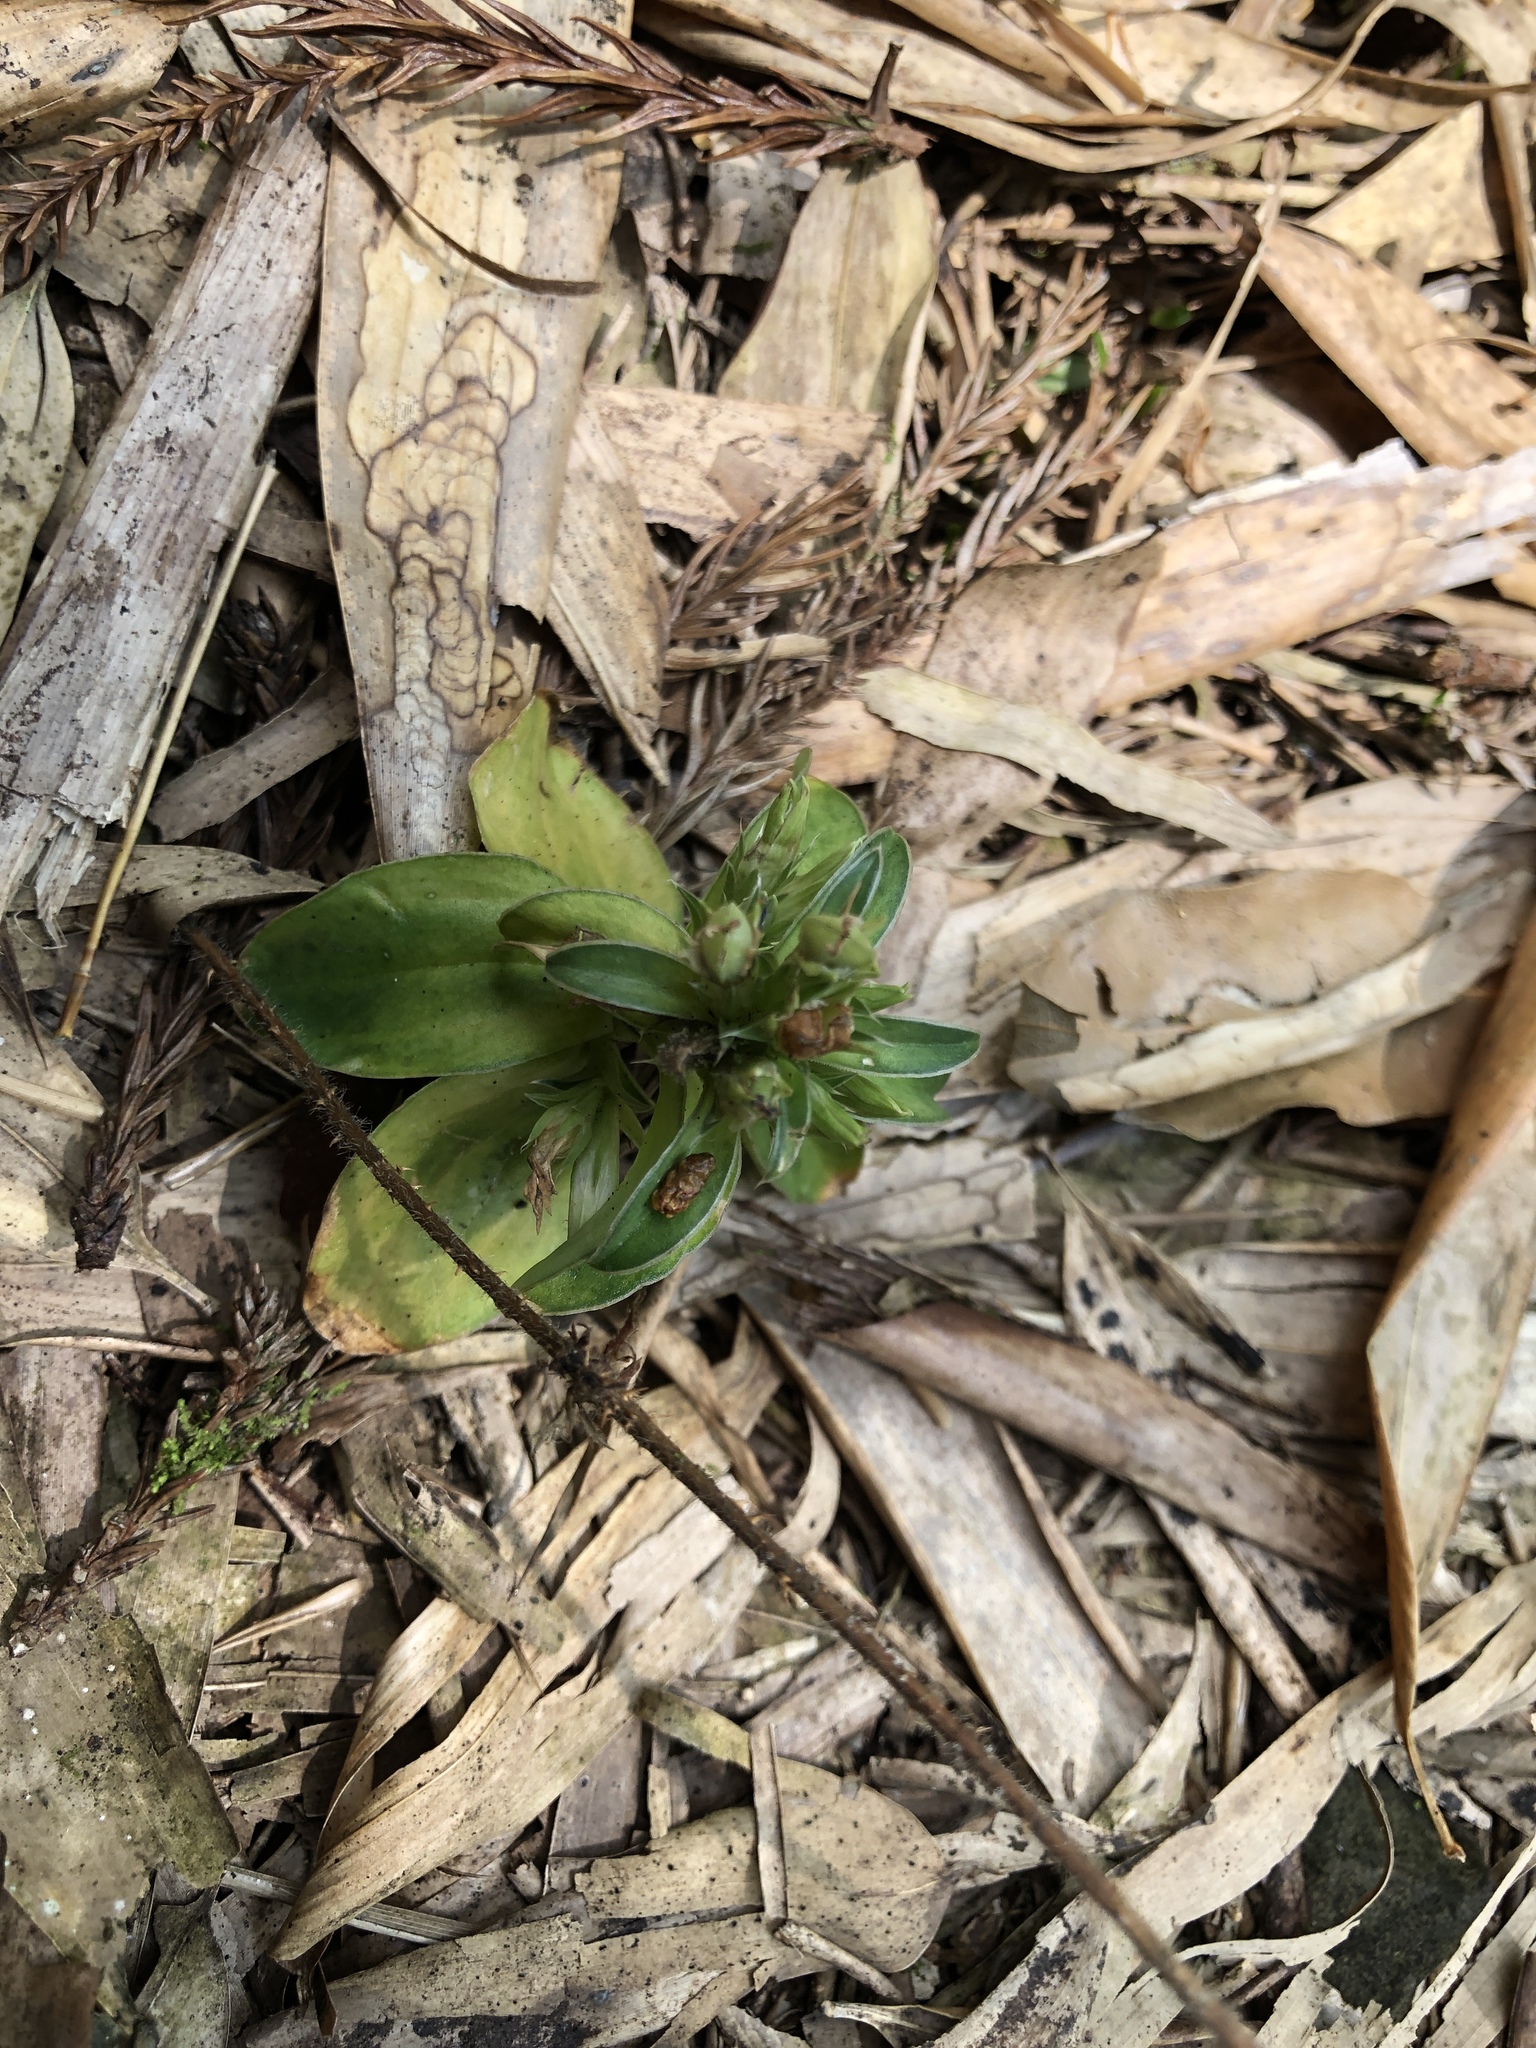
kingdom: Plantae
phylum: Tracheophyta
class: Magnoliopsida
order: Gentianales
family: Gentianaceae
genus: Gentiana
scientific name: Gentiana bambuseti
